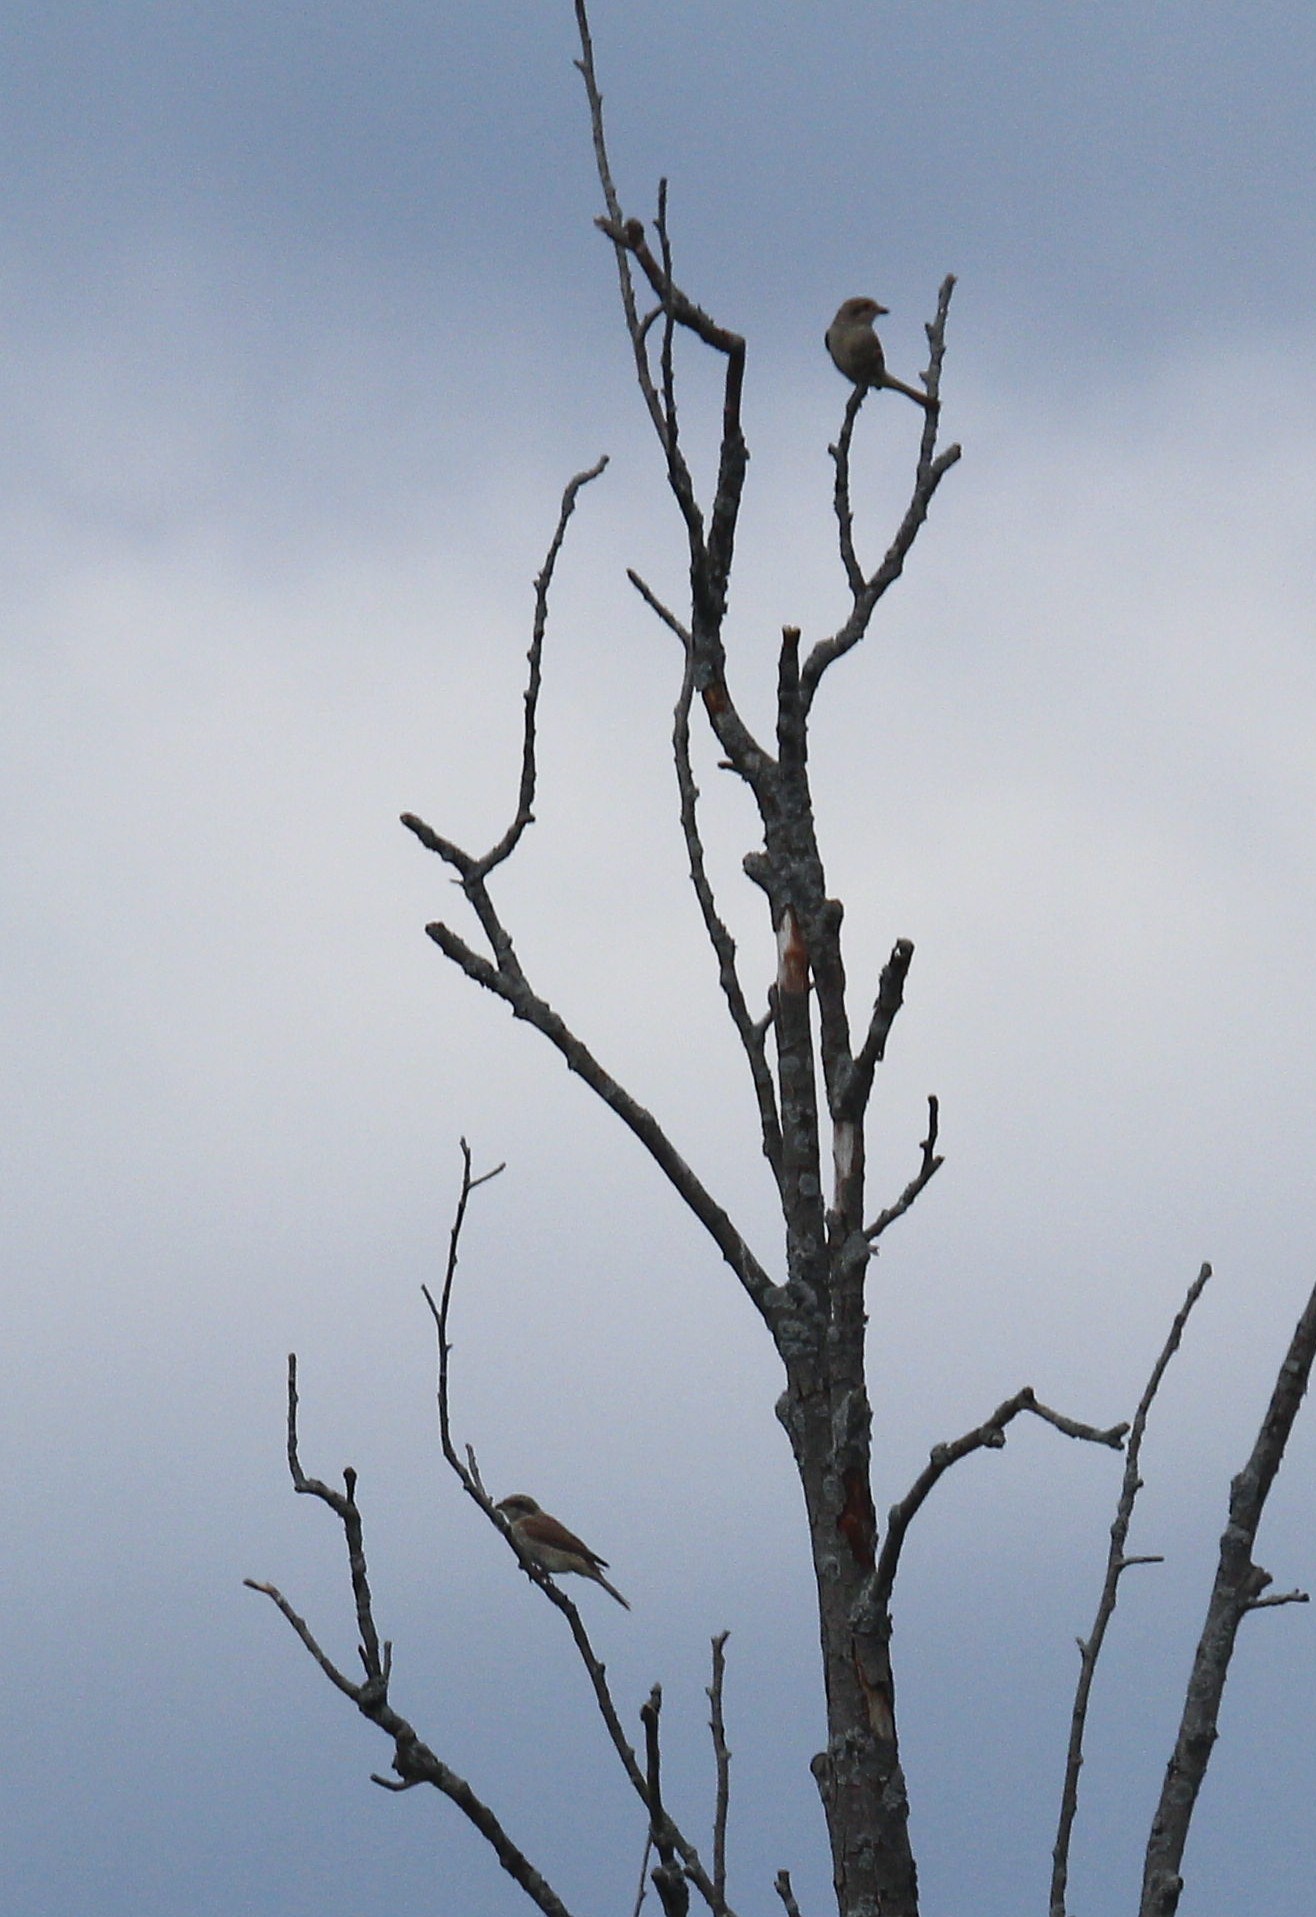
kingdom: Animalia
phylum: Chordata
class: Aves
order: Passeriformes
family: Laniidae
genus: Lanius
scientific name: Lanius collurio
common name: Red-backed shrike
